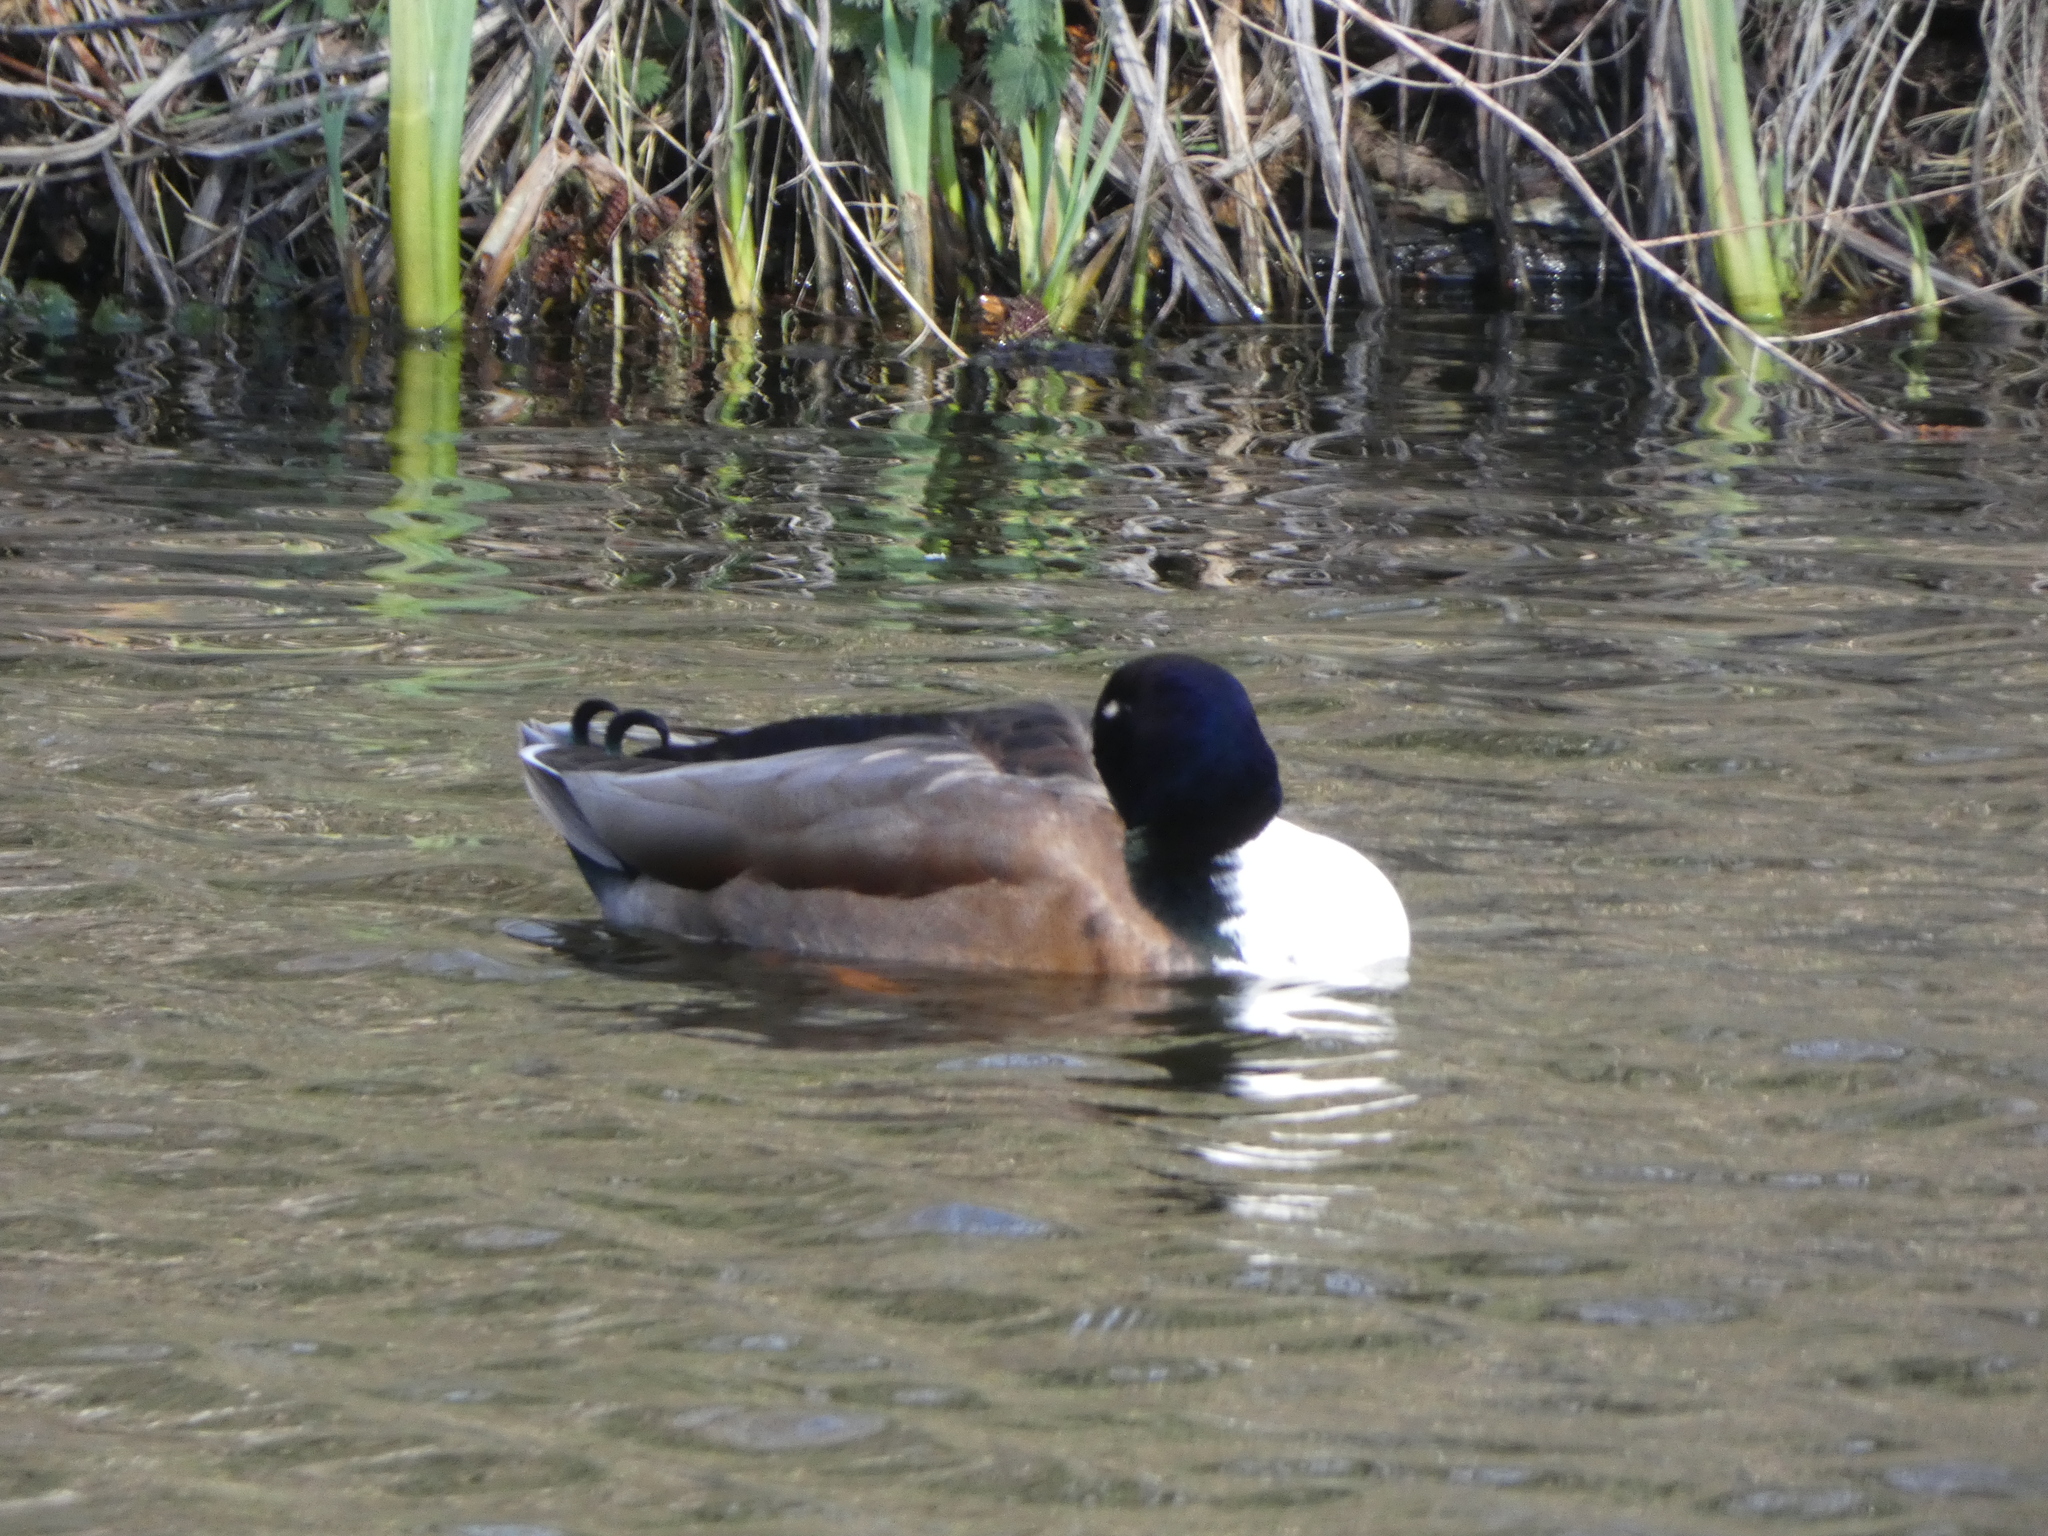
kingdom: Animalia
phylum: Chordata
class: Aves
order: Anseriformes
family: Anatidae
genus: Anas
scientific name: Anas platyrhynchos
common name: Mallard
